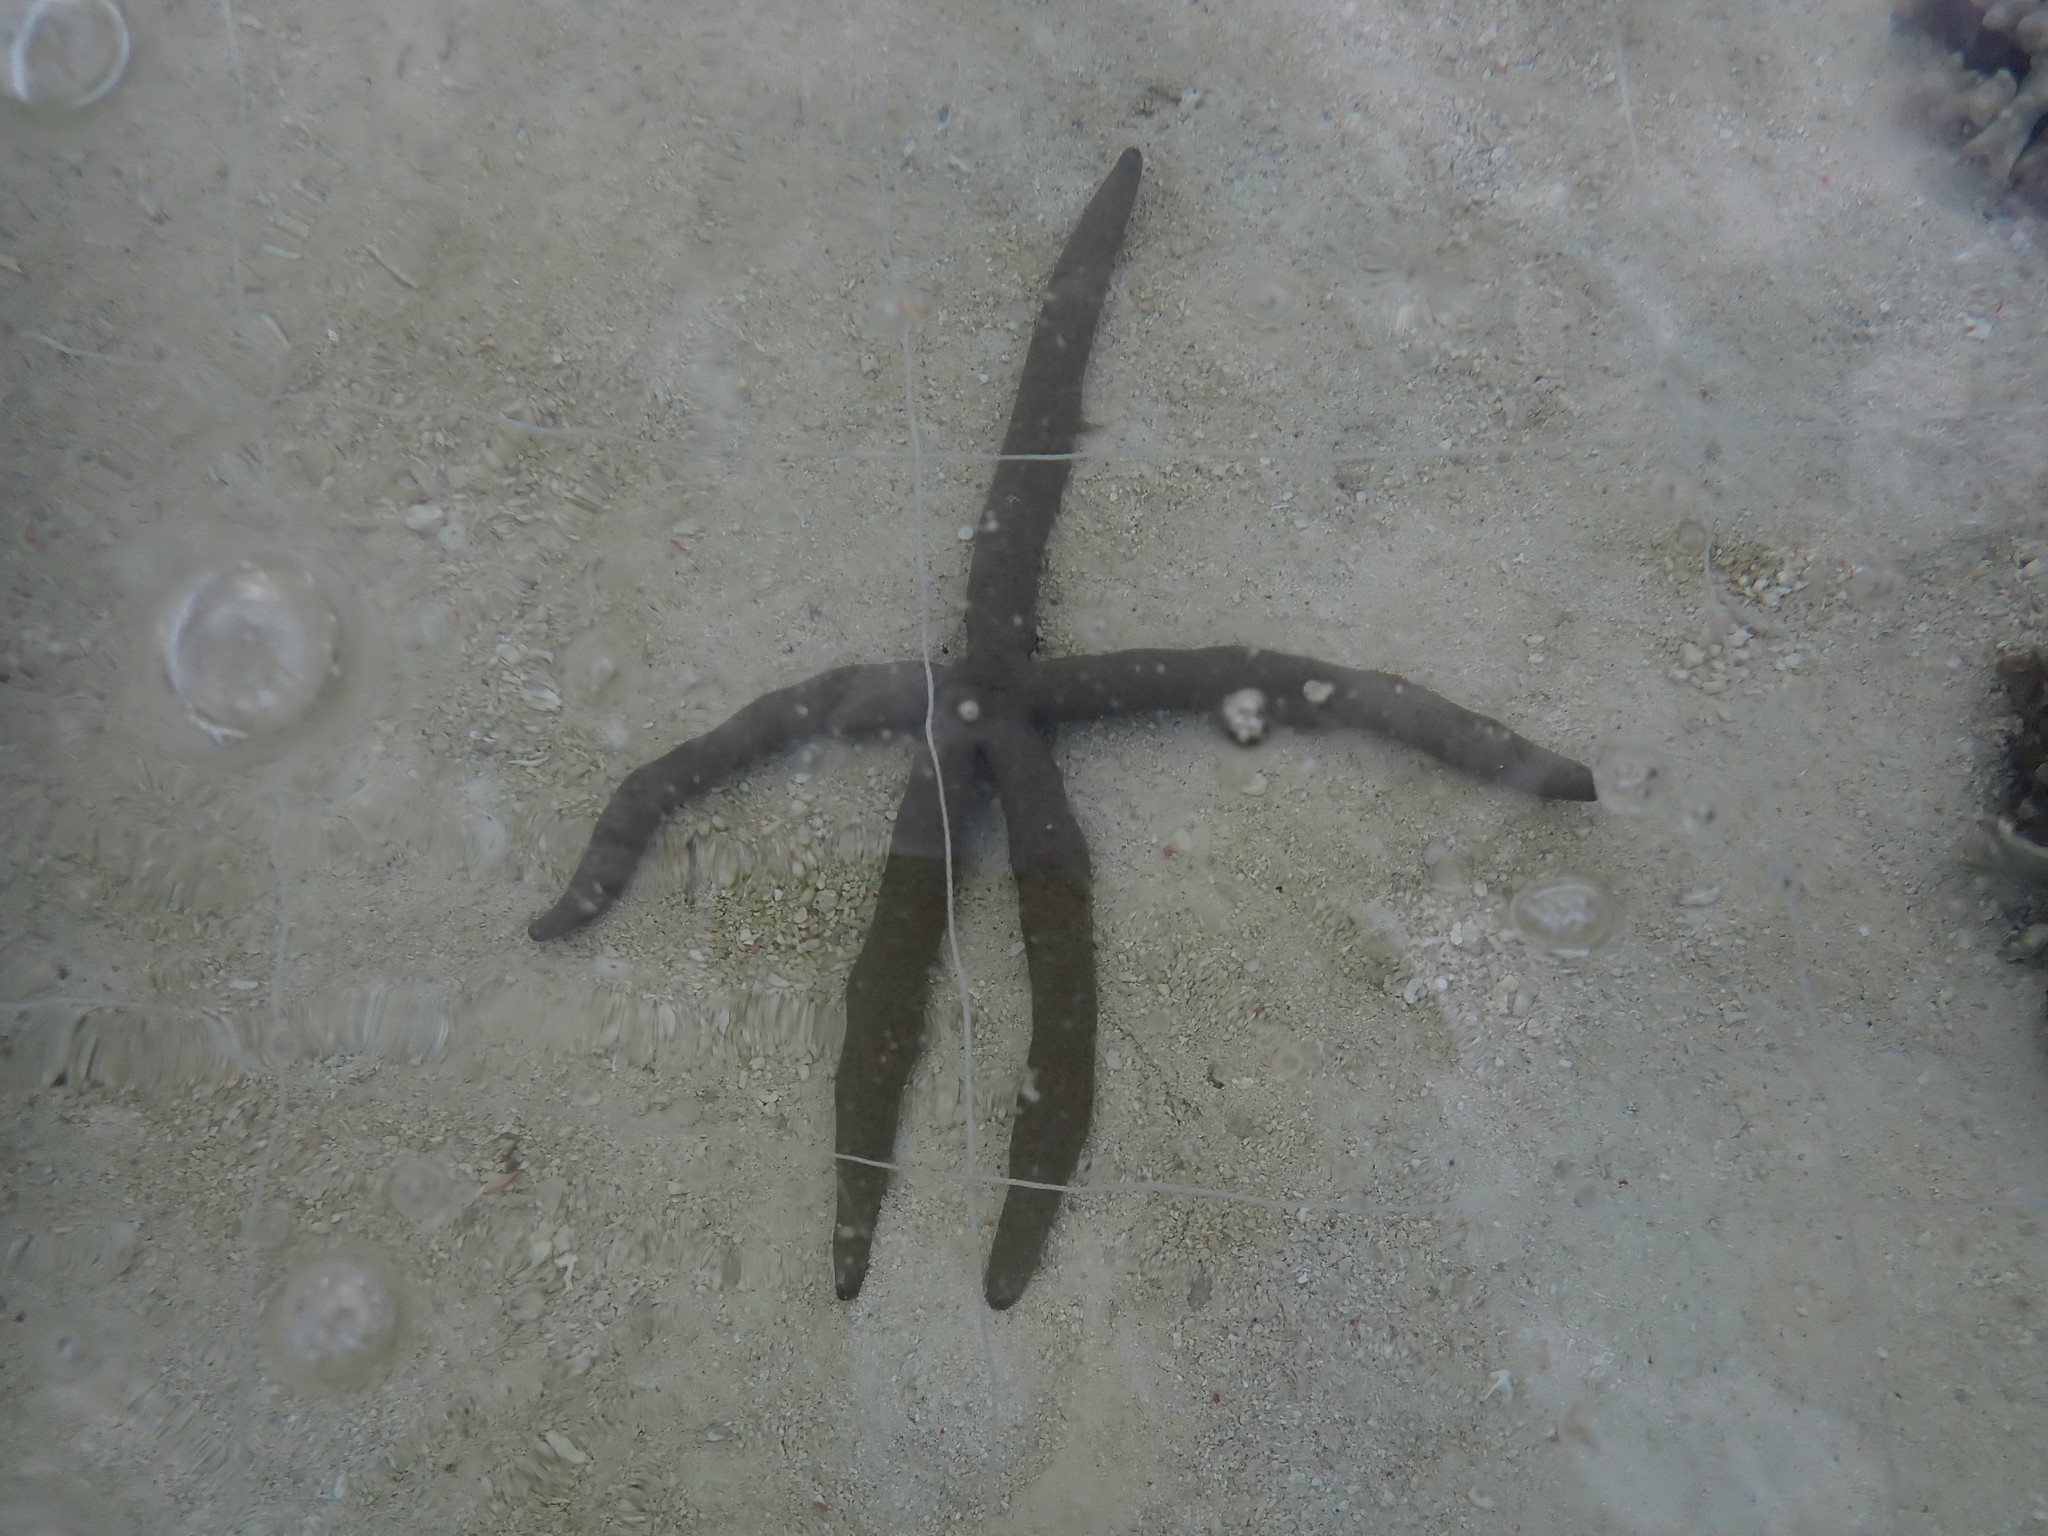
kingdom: Animalia
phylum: Echinodermata
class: Asteroidea
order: Valvatida
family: Ophidiasteridae
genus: Linckia
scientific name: Linckia guildingi
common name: Common comet star
